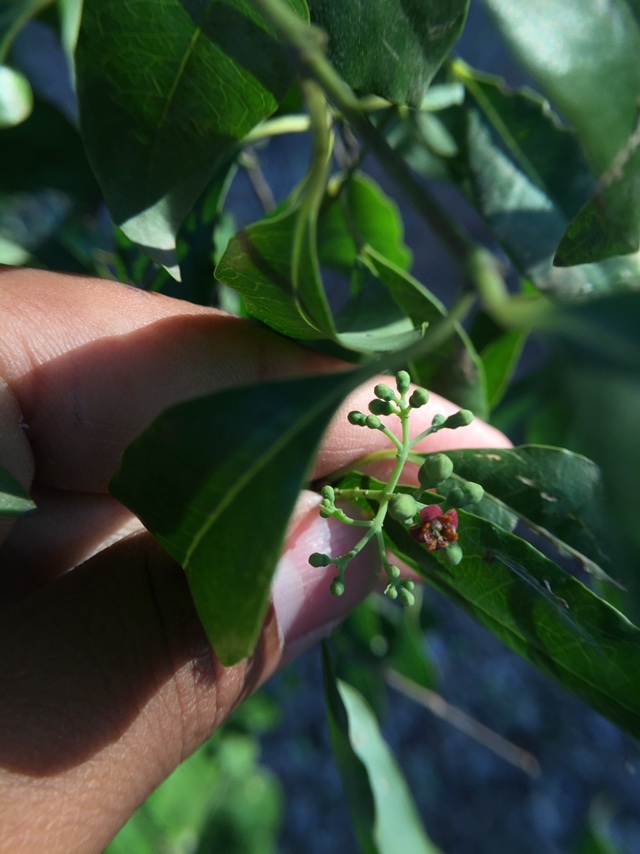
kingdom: Plantae
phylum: Tracheophyta
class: Magnoliopsida
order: Malpighiales
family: Euphorbiaceae
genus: Jatropha
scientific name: Jatropha gossypiifolia
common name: Bellyache bush
